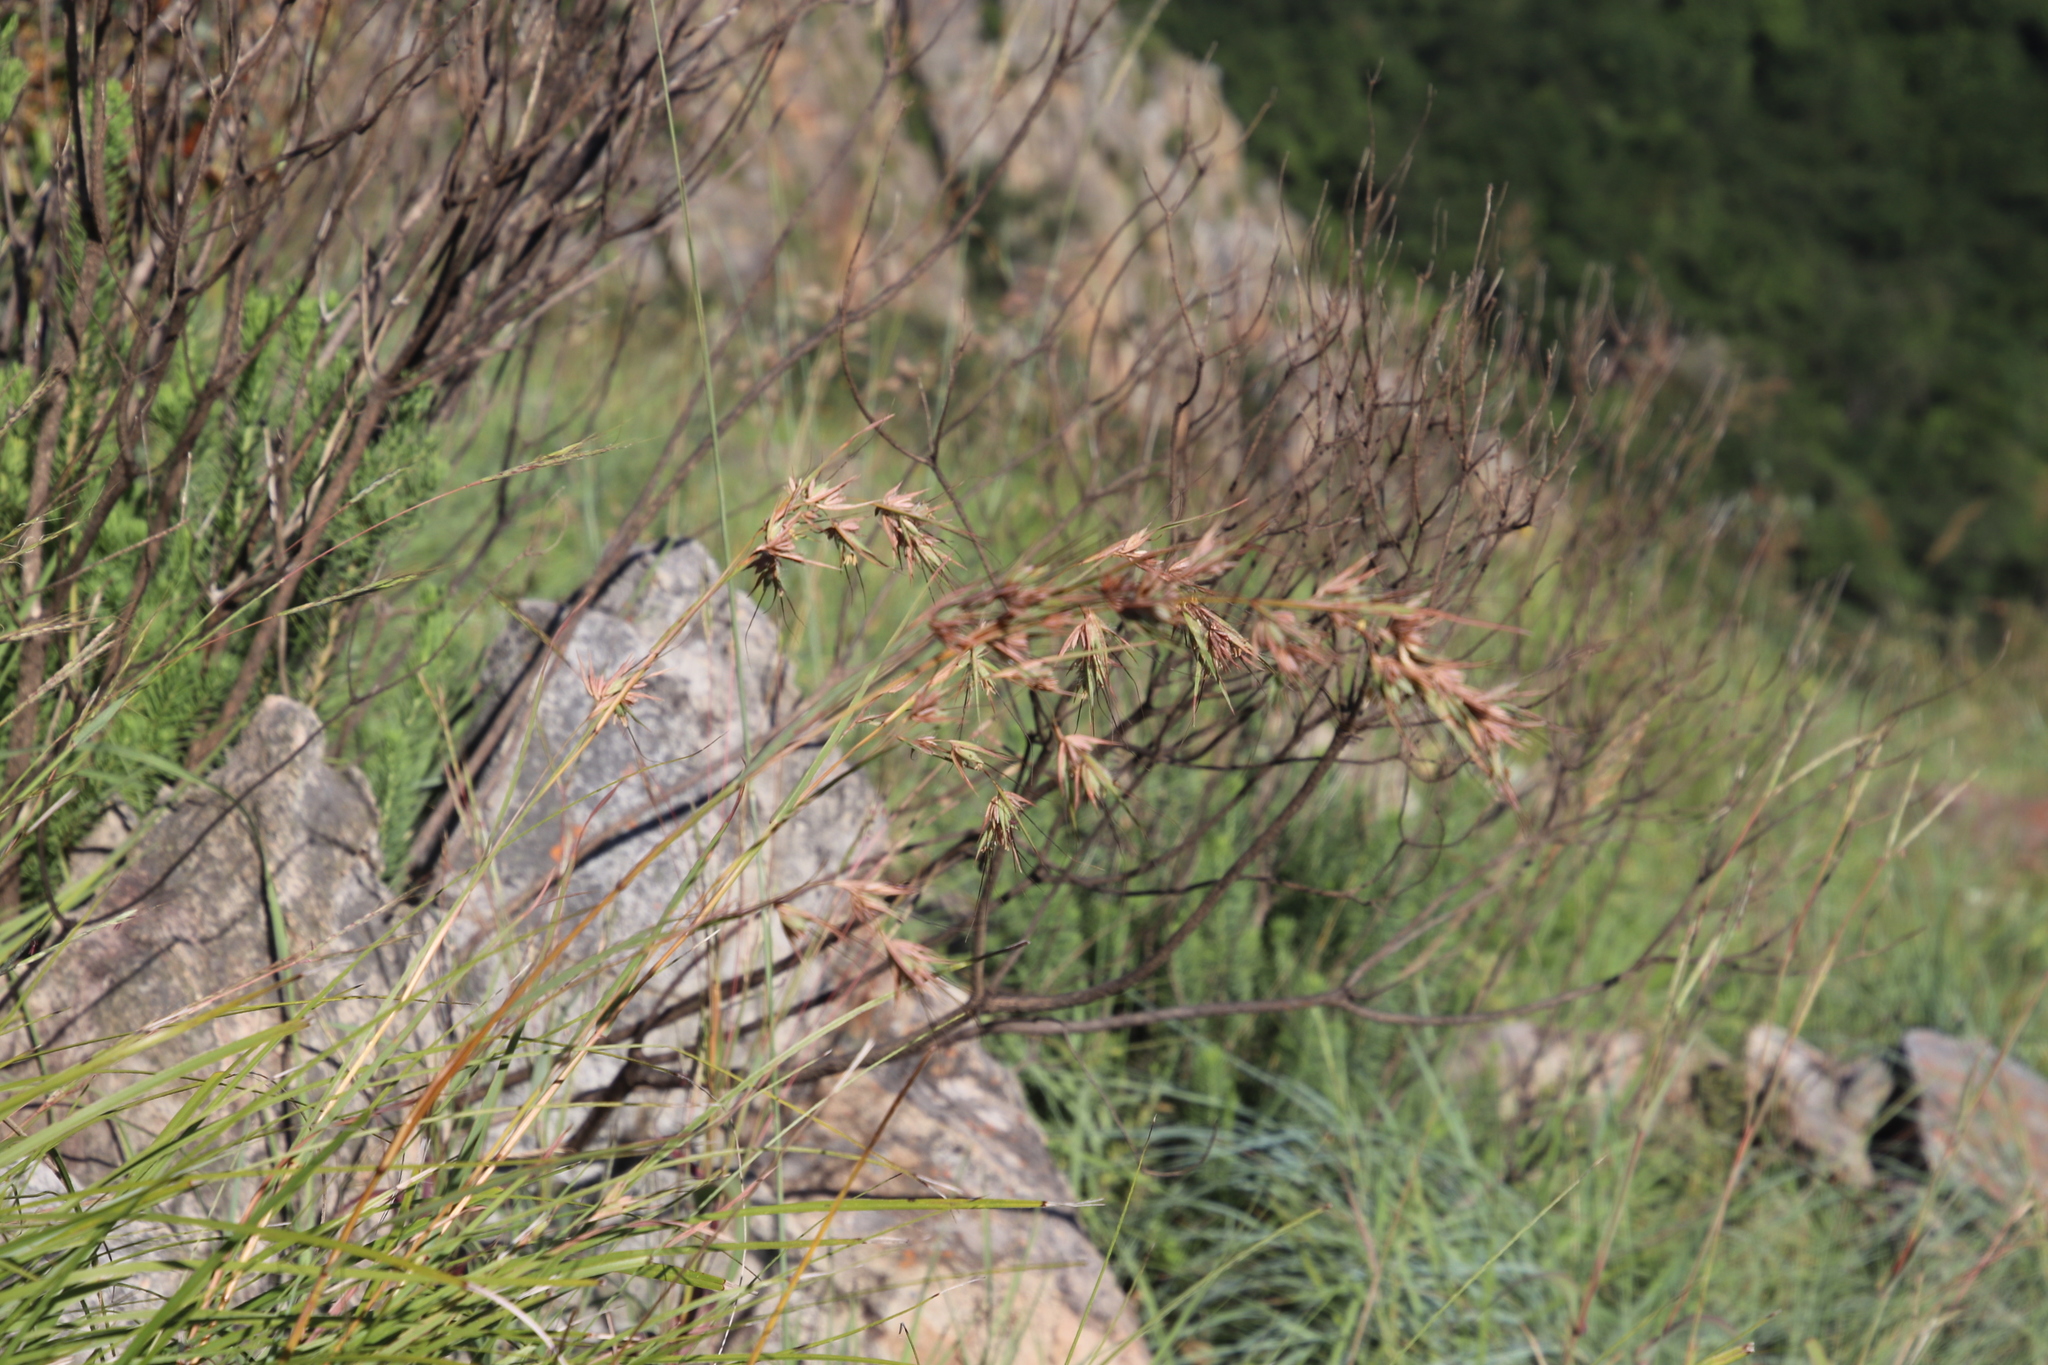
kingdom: Plantae
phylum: Tracheophyta
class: Liliopsida
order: Poales
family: Poaceae
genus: Themeda
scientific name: Themeda triandra
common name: Kangaroo grass
